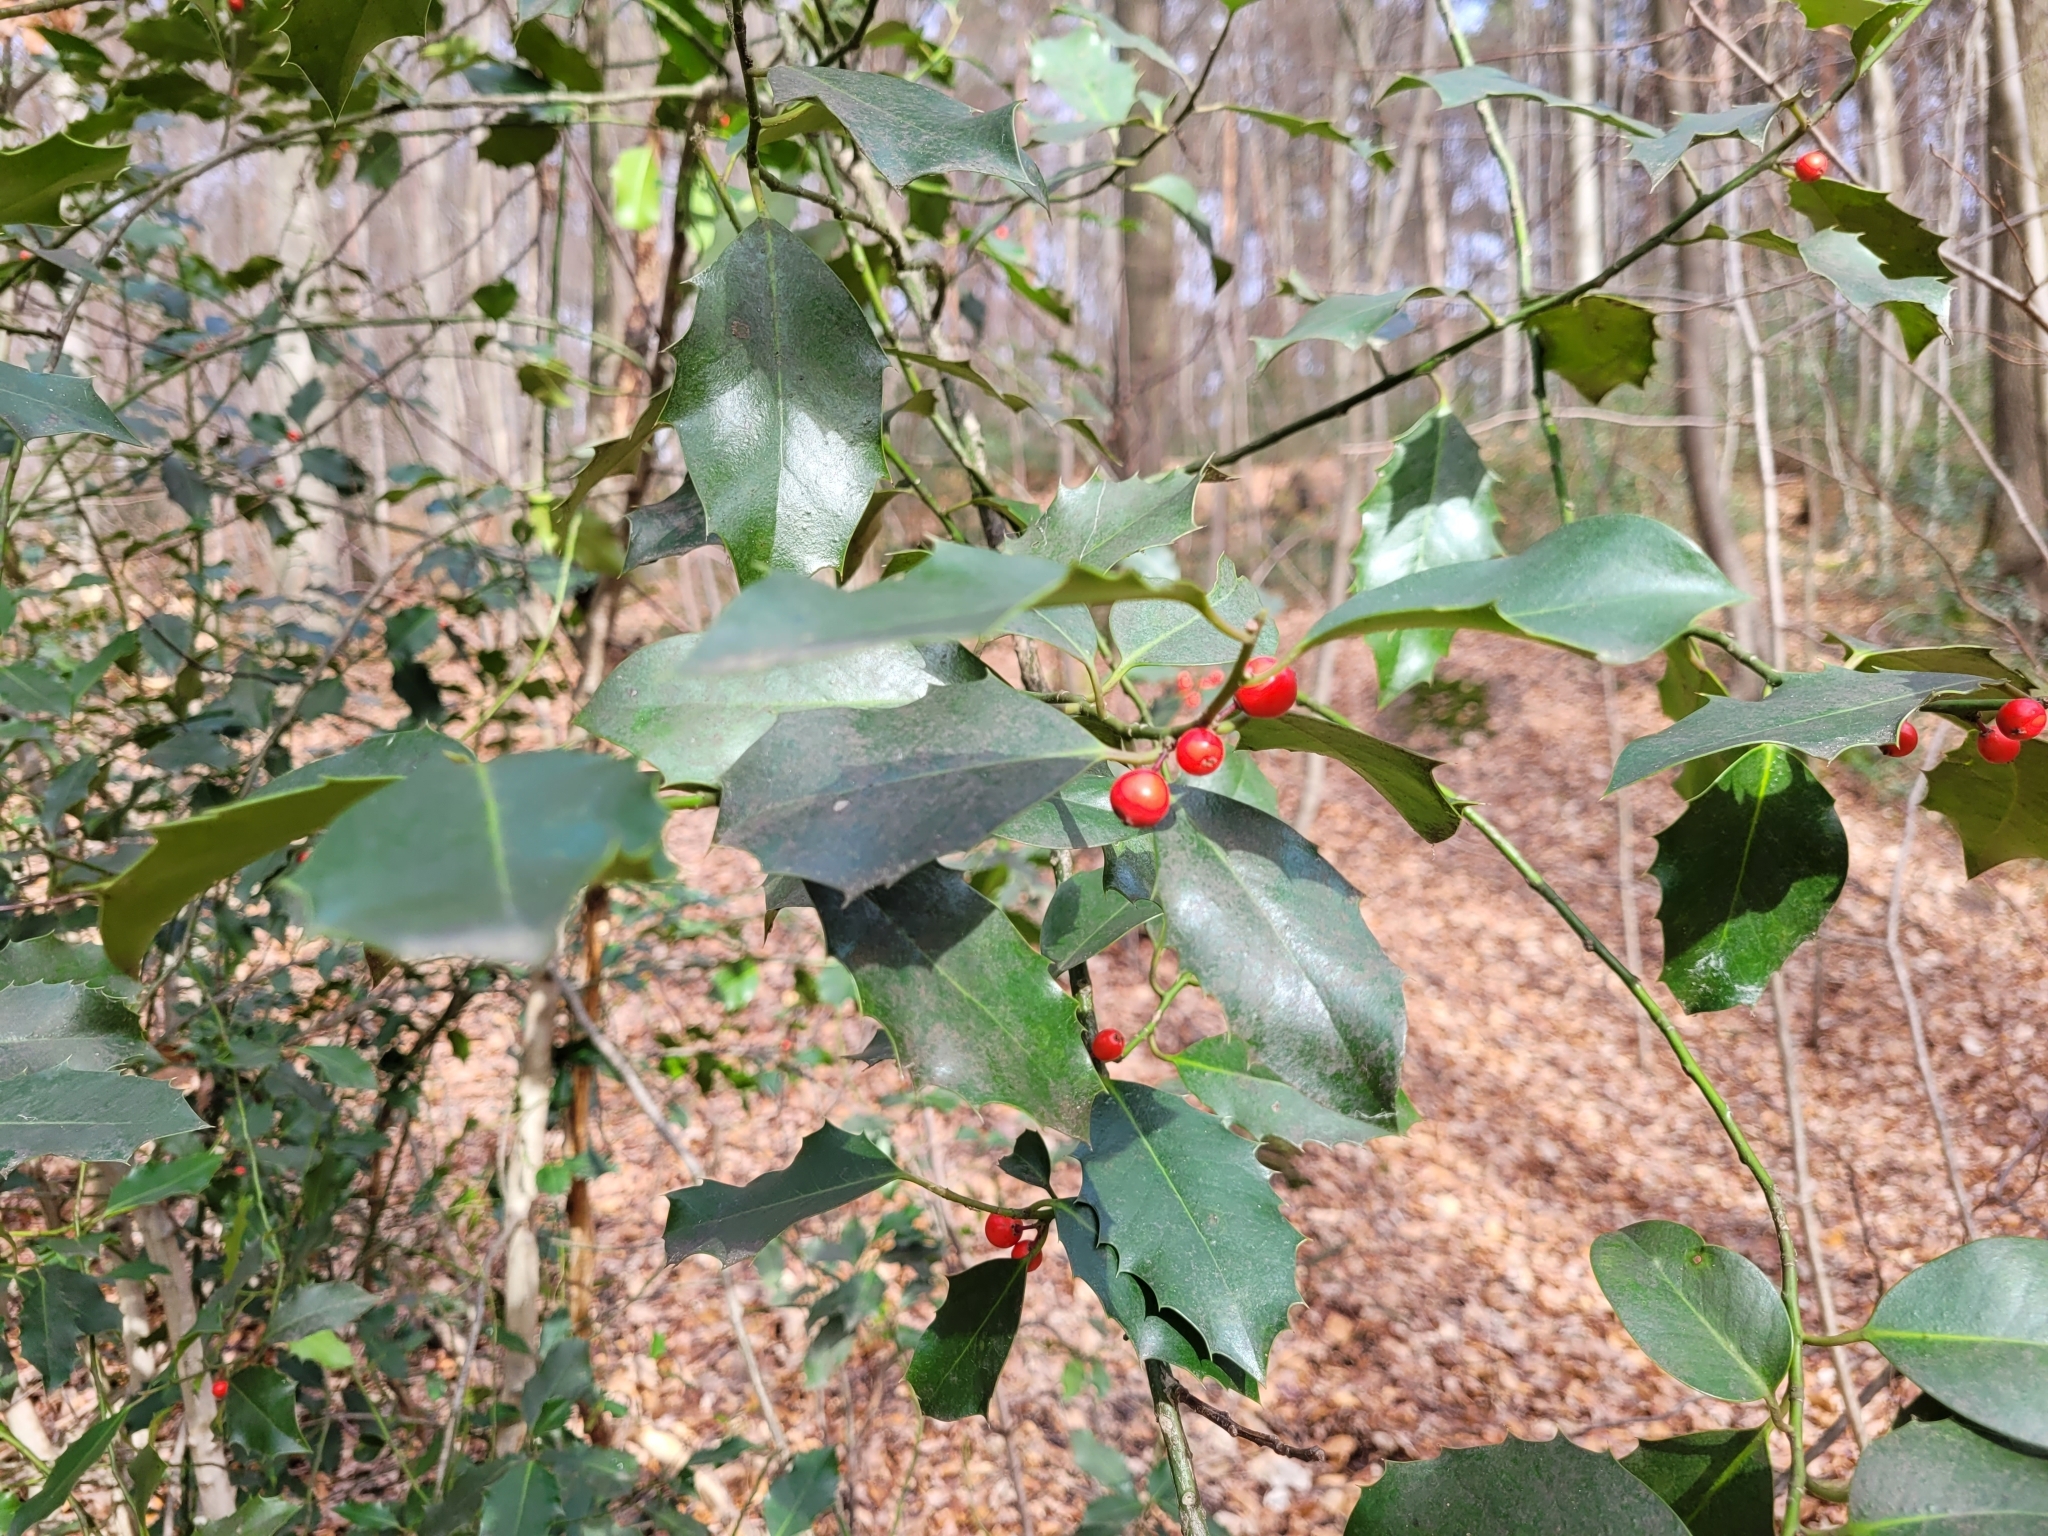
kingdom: Plantae
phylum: Tracheophyta
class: Magnoliopsida
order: Aquifoliales
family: Aquifoliaceae
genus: Ilex
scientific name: Ilex aquifolium
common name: English holly
